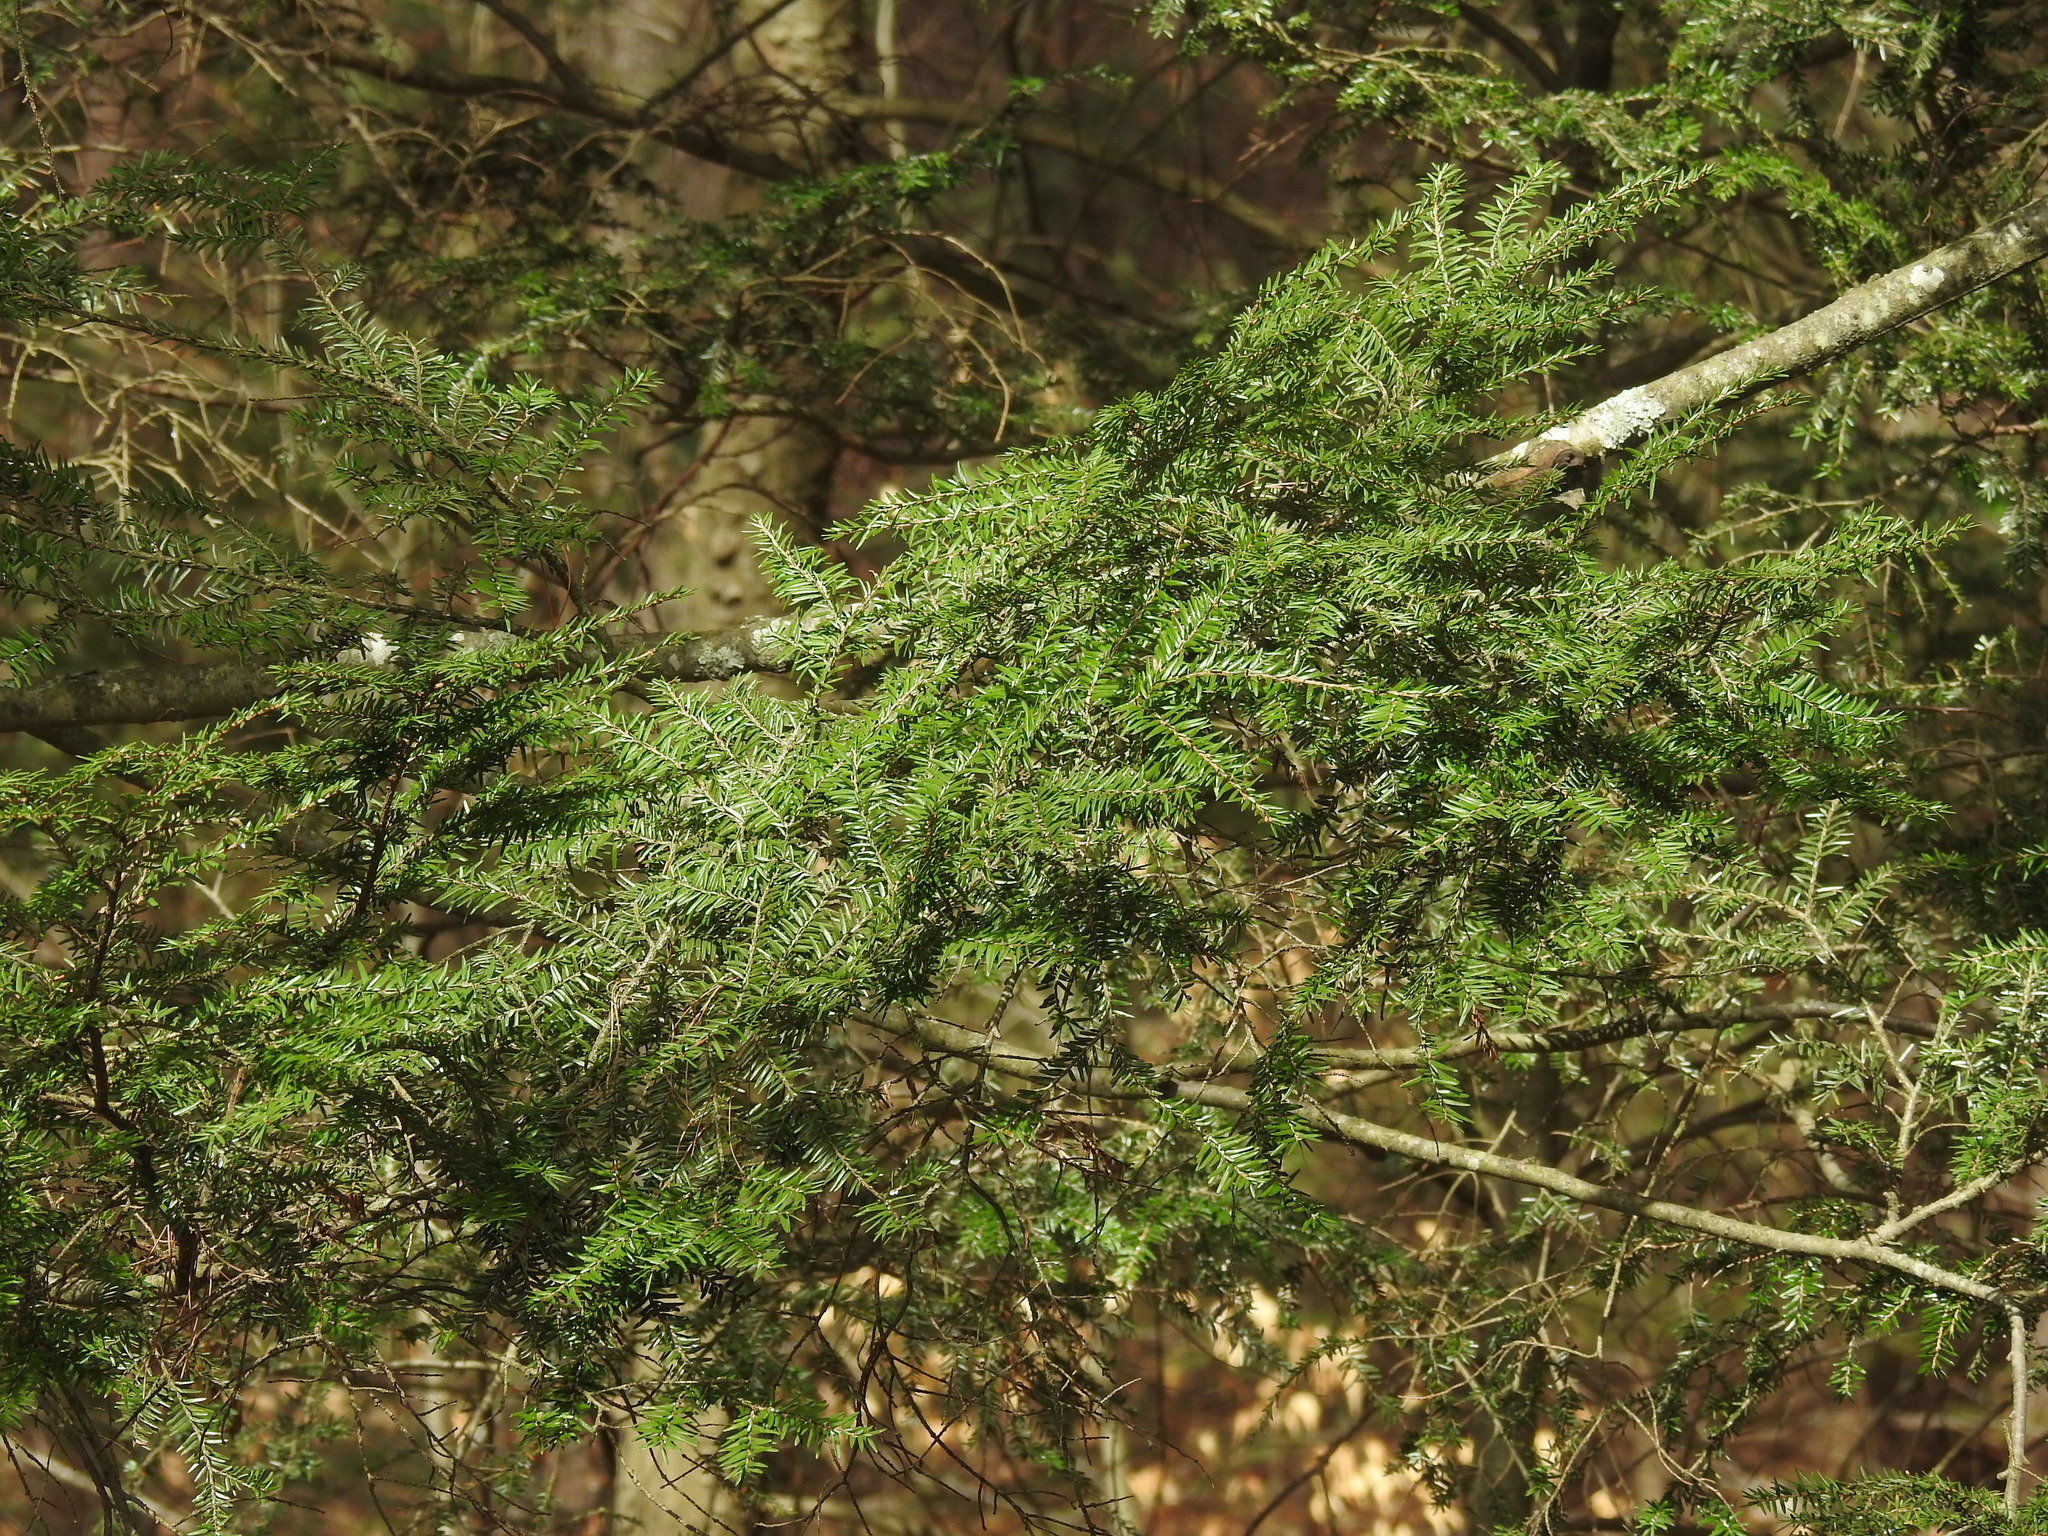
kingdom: Plantae
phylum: Tracheophyta
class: Pinopsida
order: Pinales
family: Pinaceae
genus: Tsuga
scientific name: Tsuga canadensis
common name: Eastern hemlock
